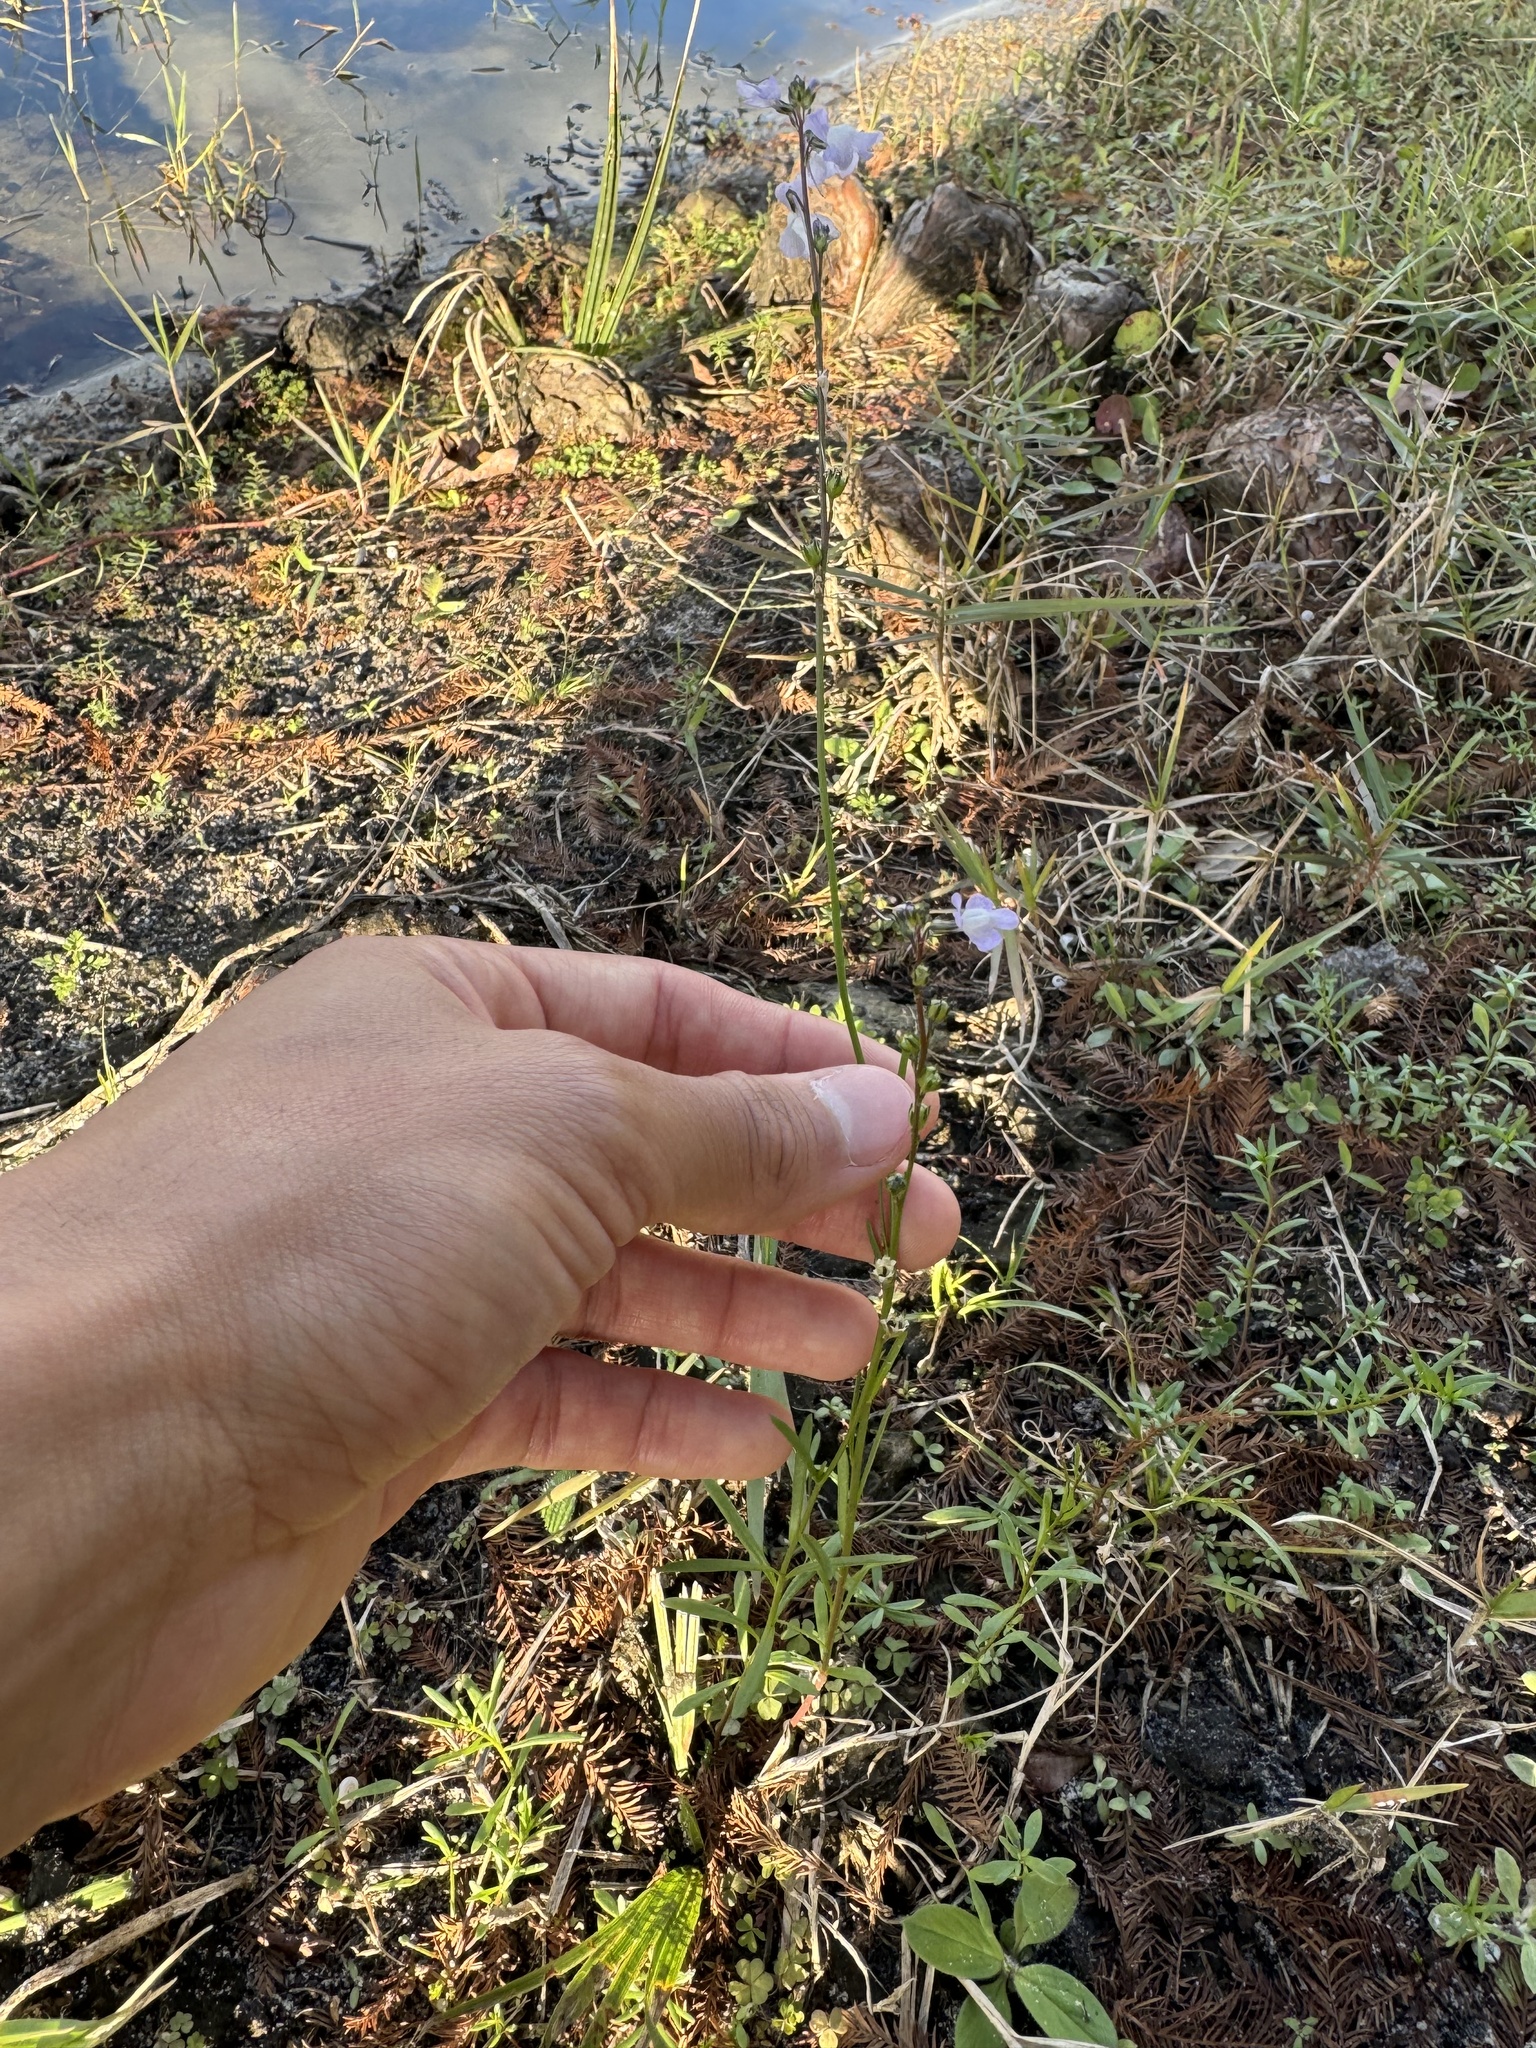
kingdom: Plantae
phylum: Tracheophyta
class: Magnoliopsida
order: Lamiales
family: Plantaginaceae
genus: Nuttallanthus
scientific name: Nuttallanthus canadensis
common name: Blue toadflax
